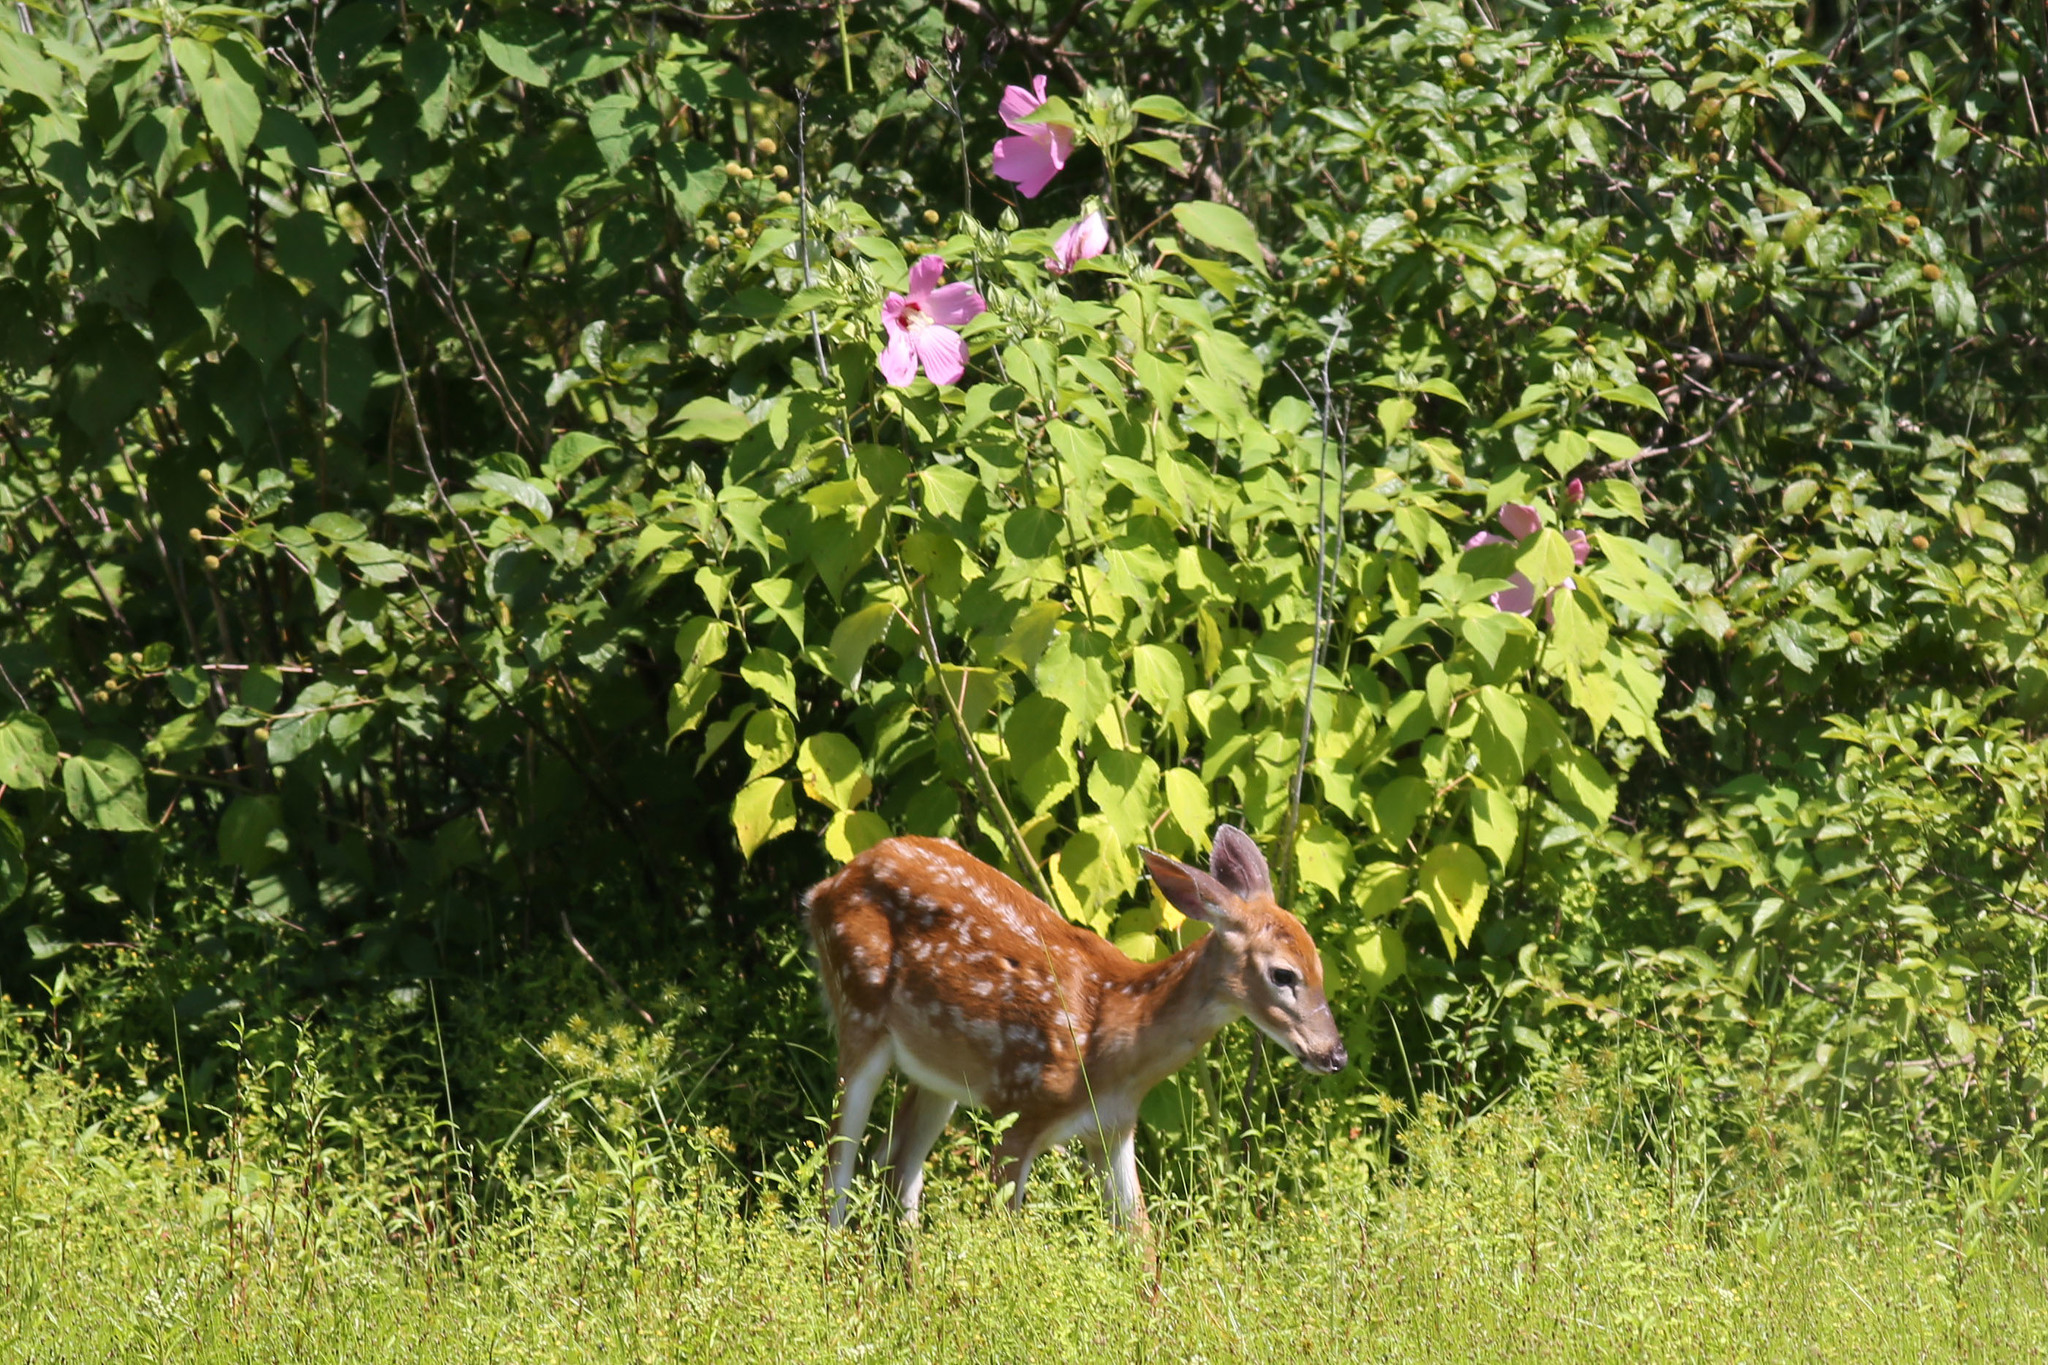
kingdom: Animalia
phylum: Chordata
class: Mammalia
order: Artiodactyla
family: Cervidae
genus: Odocoileus
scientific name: Odocoileus virginianus
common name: White-tailed deer
